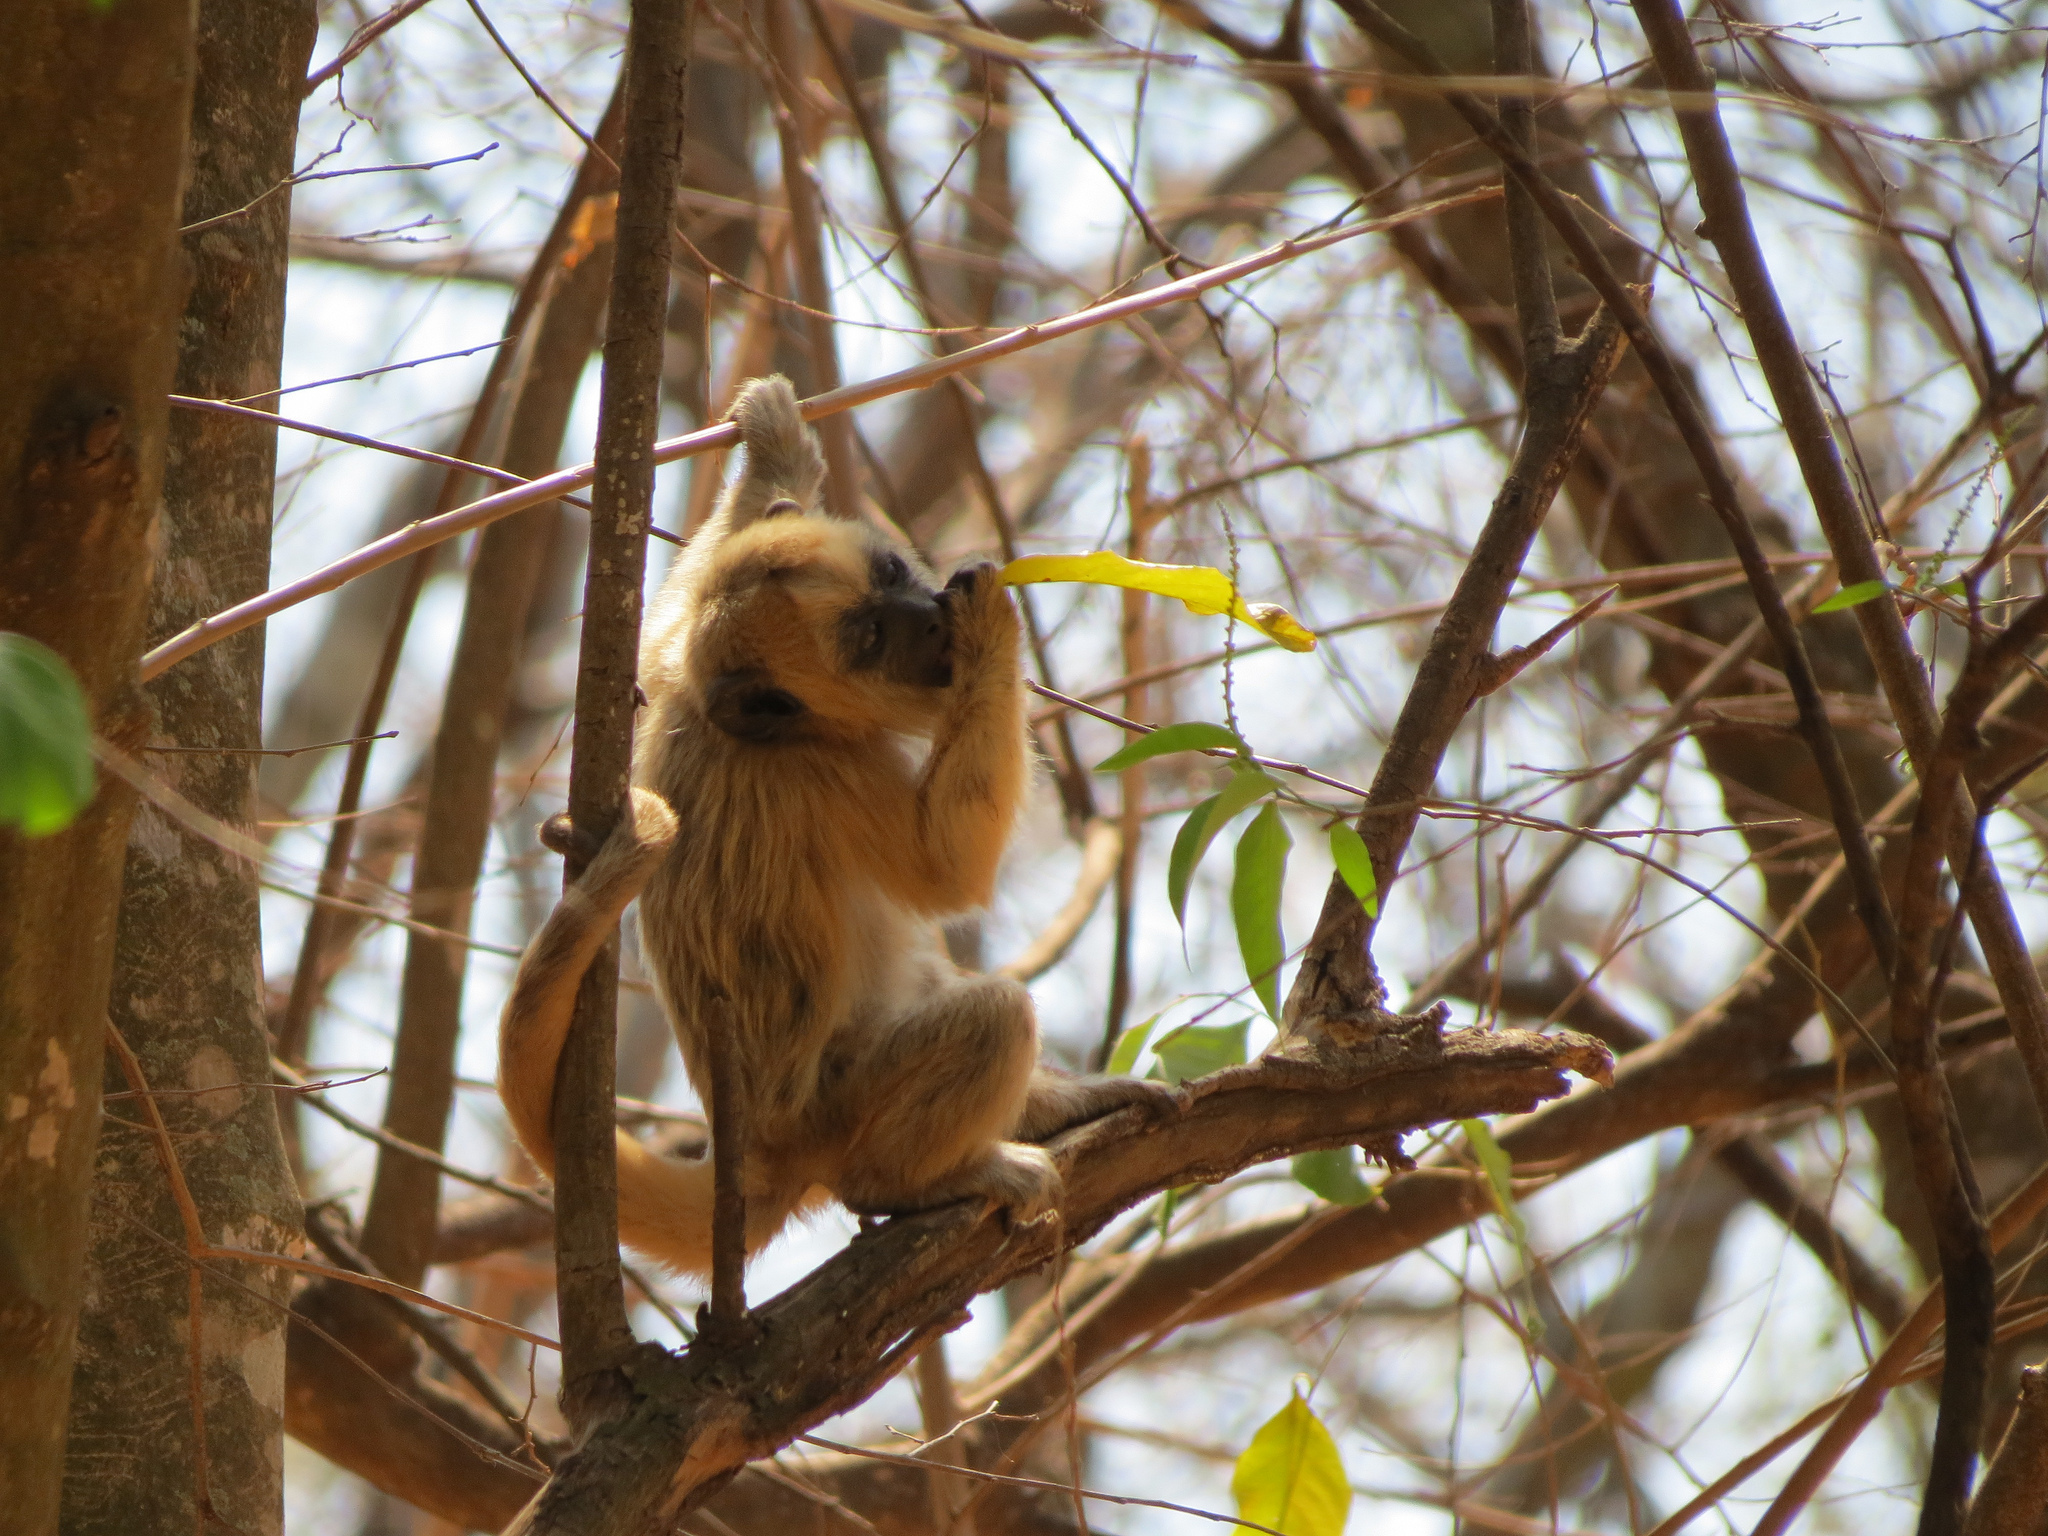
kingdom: Animalia
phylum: Chordata
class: Mammalia
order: Primates
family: Atelidae
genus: Alouatta
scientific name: Alouatta caraya
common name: Black howler
